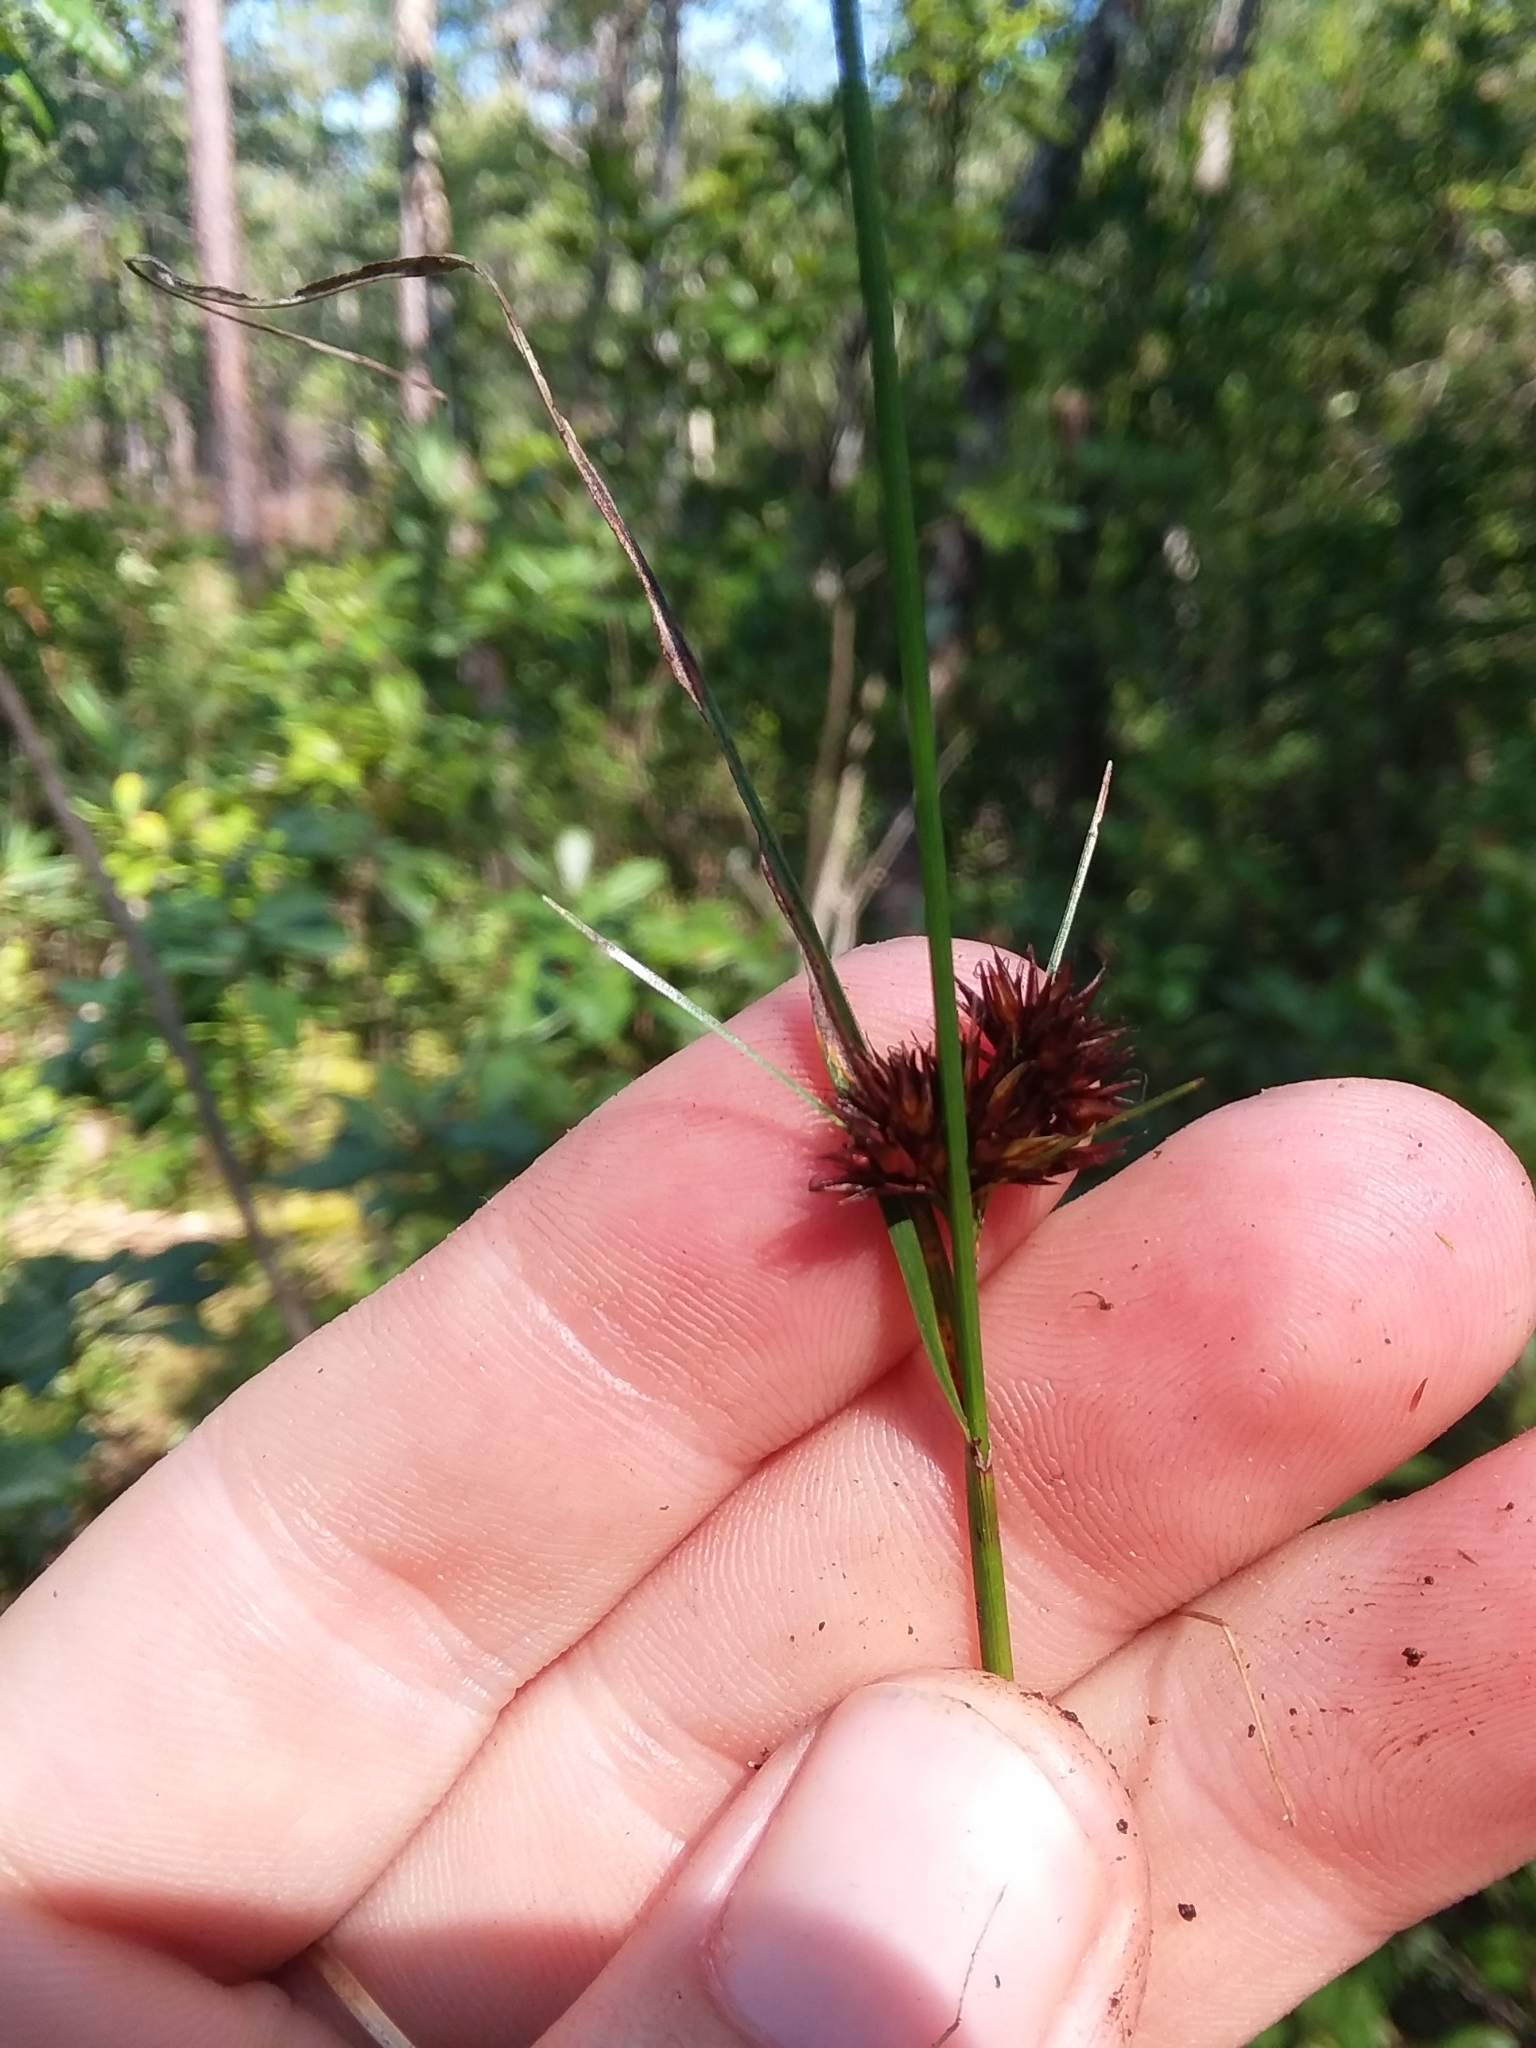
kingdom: Plantae
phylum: Tracheophyta
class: Liliopsida
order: Poales
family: Cyperaceae
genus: Rhynchospora
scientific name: Rhynchospora cephalantha
